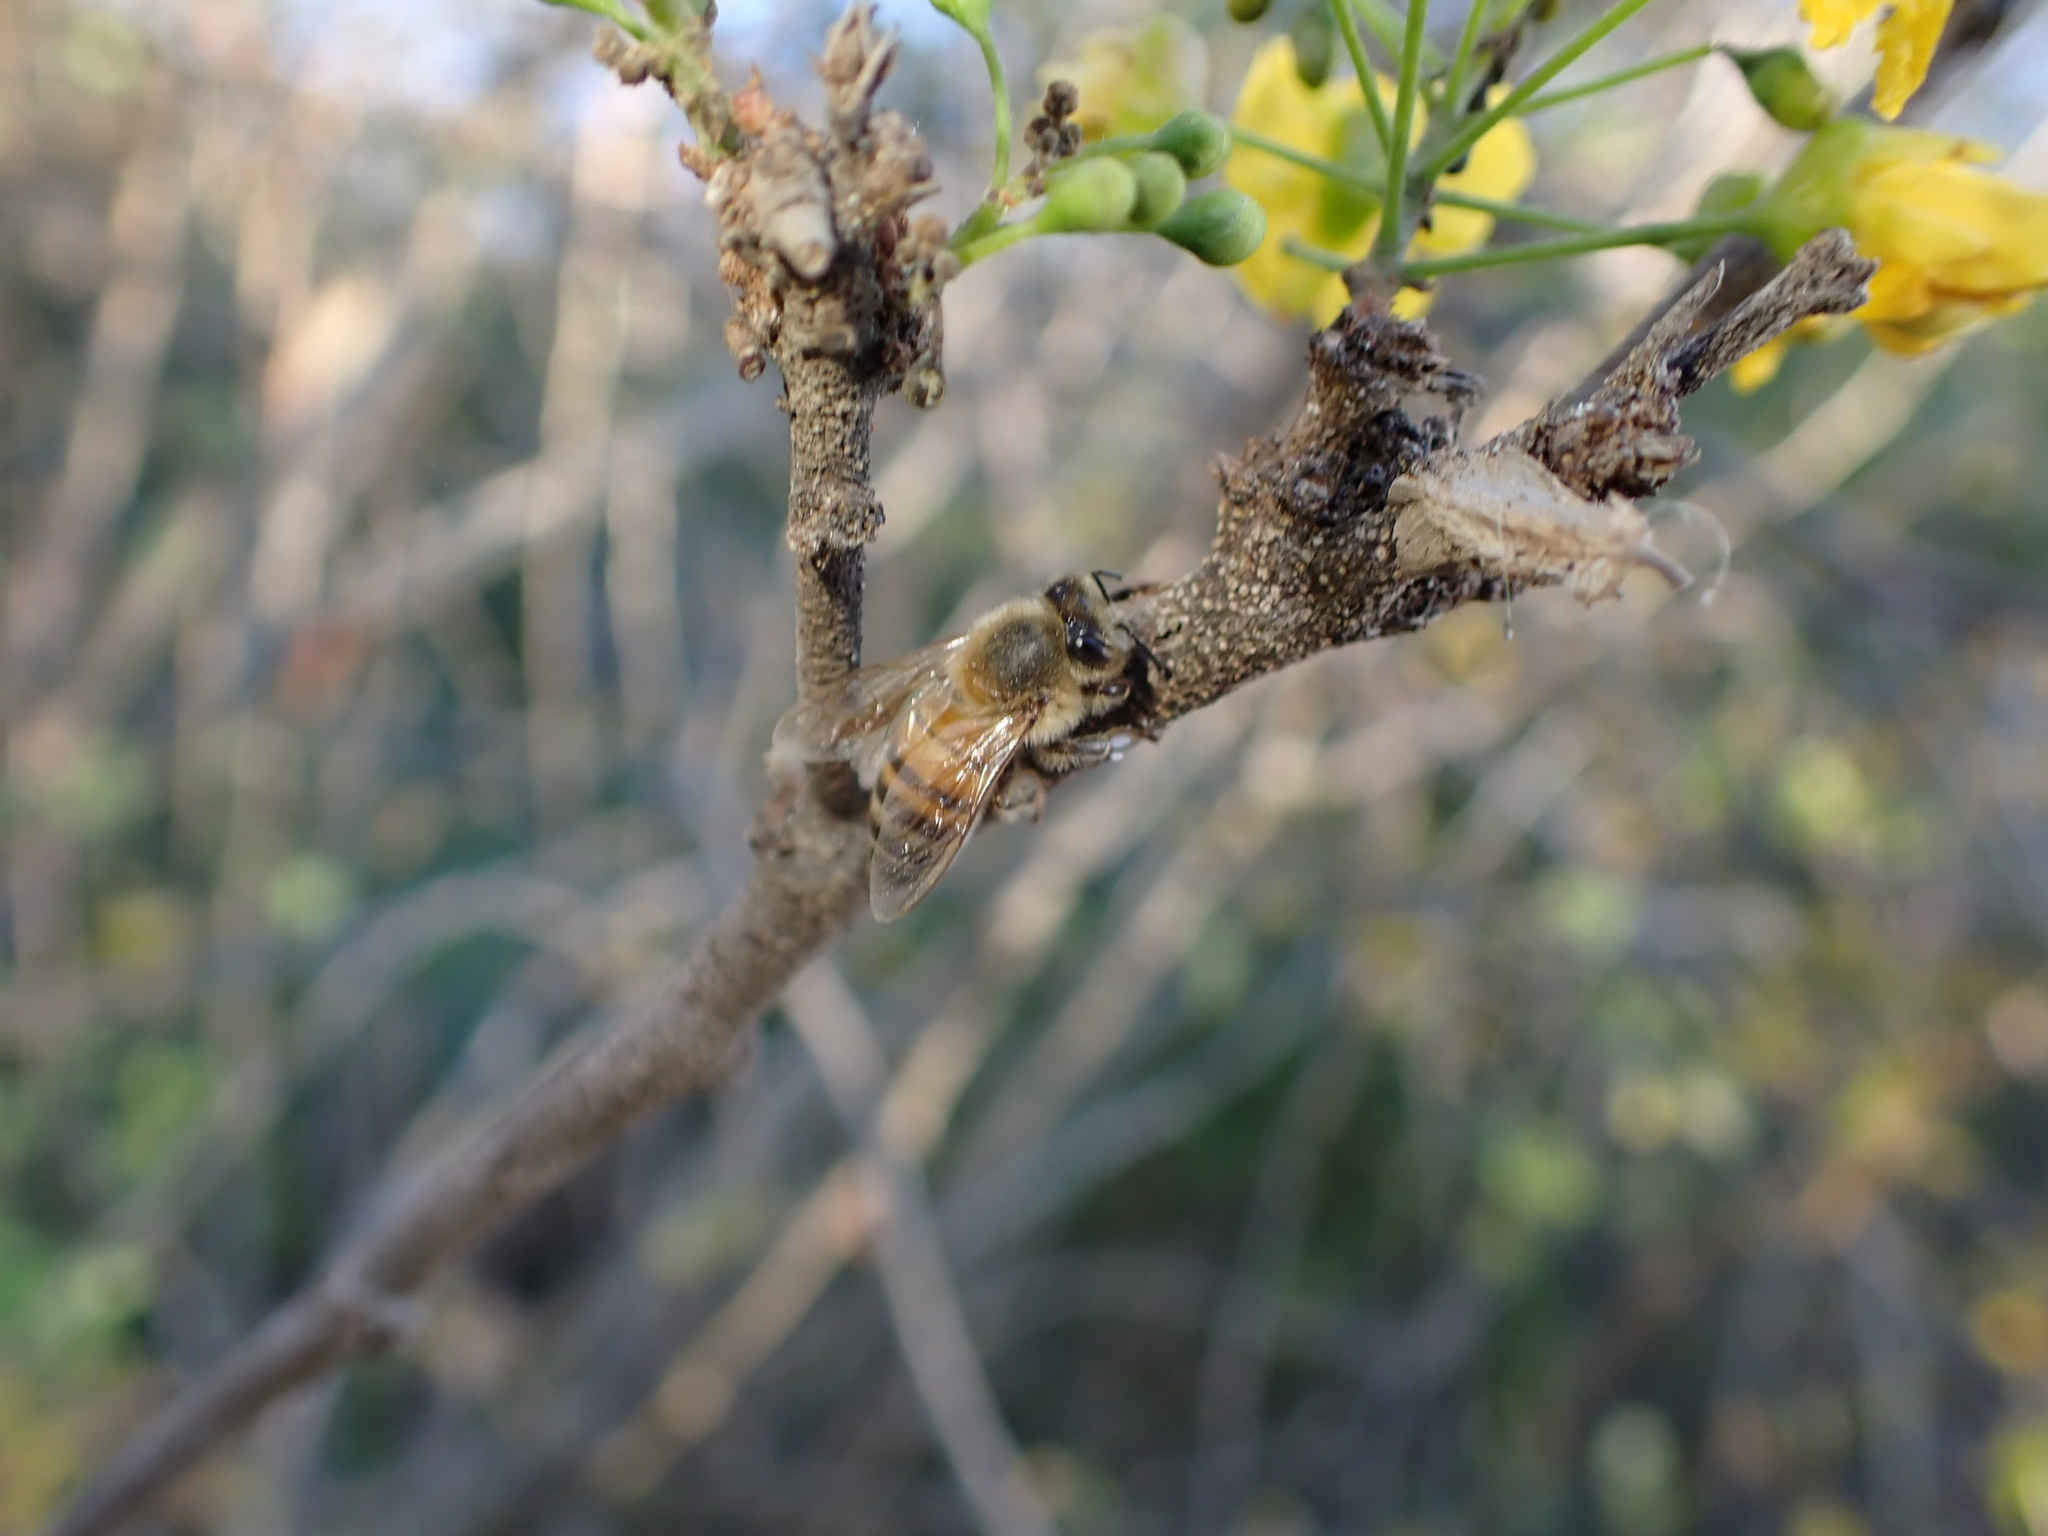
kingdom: Animalia
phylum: Arthropoda
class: Insecta
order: Hymenoptera
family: Apidae
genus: Apis
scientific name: Apis mellifera
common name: Honey bee
